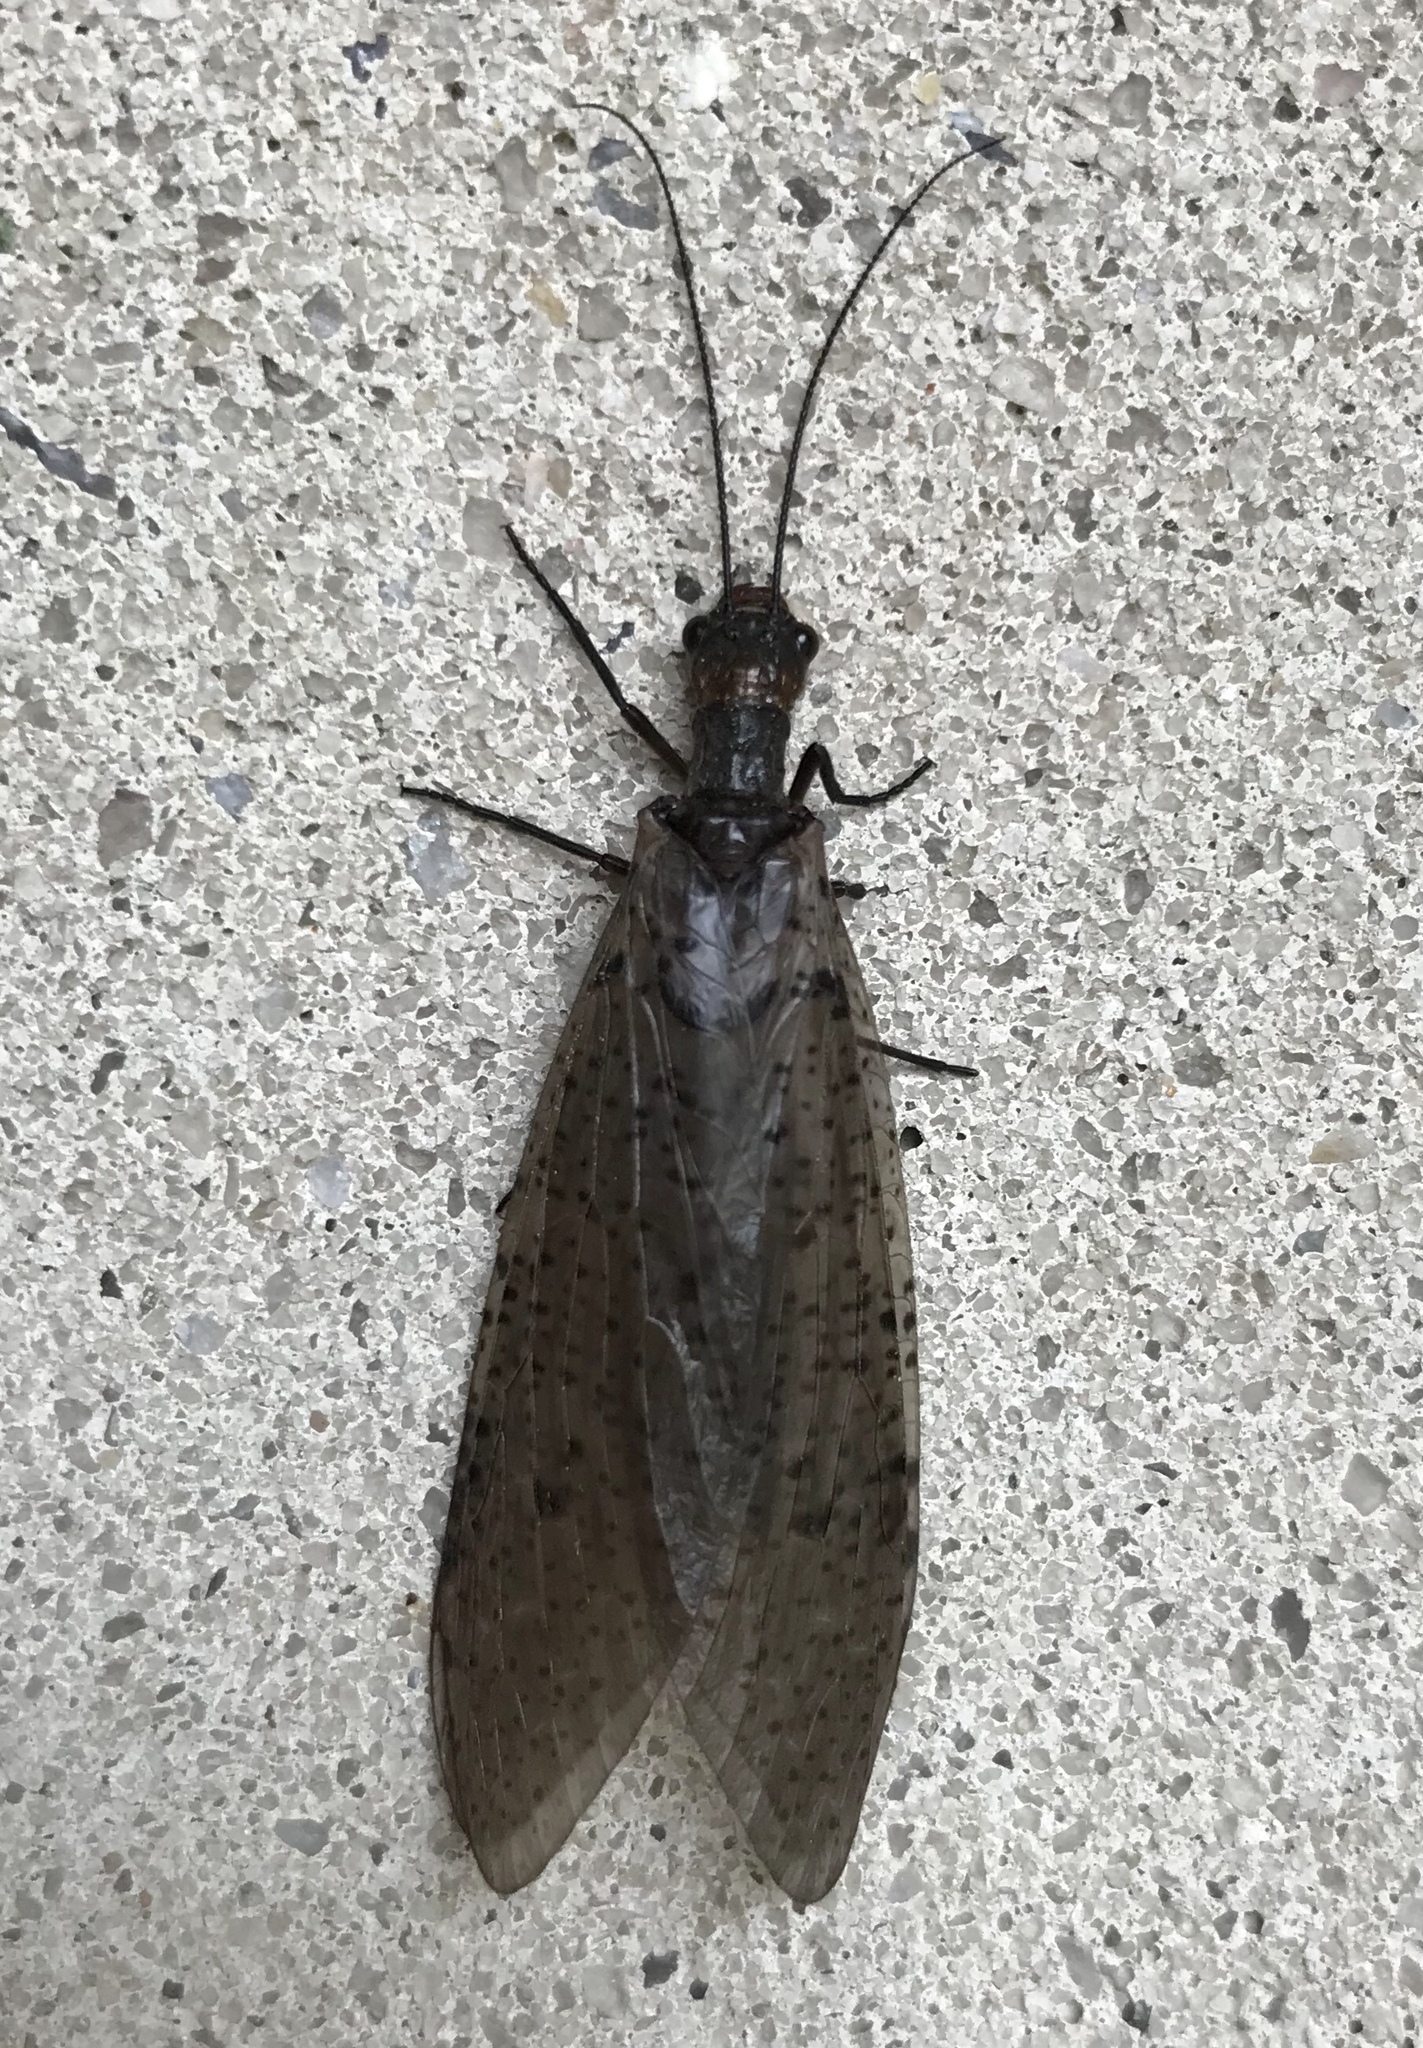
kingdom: Animalia
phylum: Arthropoda
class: Insecta
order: Megaloptera
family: Corydalidae
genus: Neohermes
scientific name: Neohermes concolor
